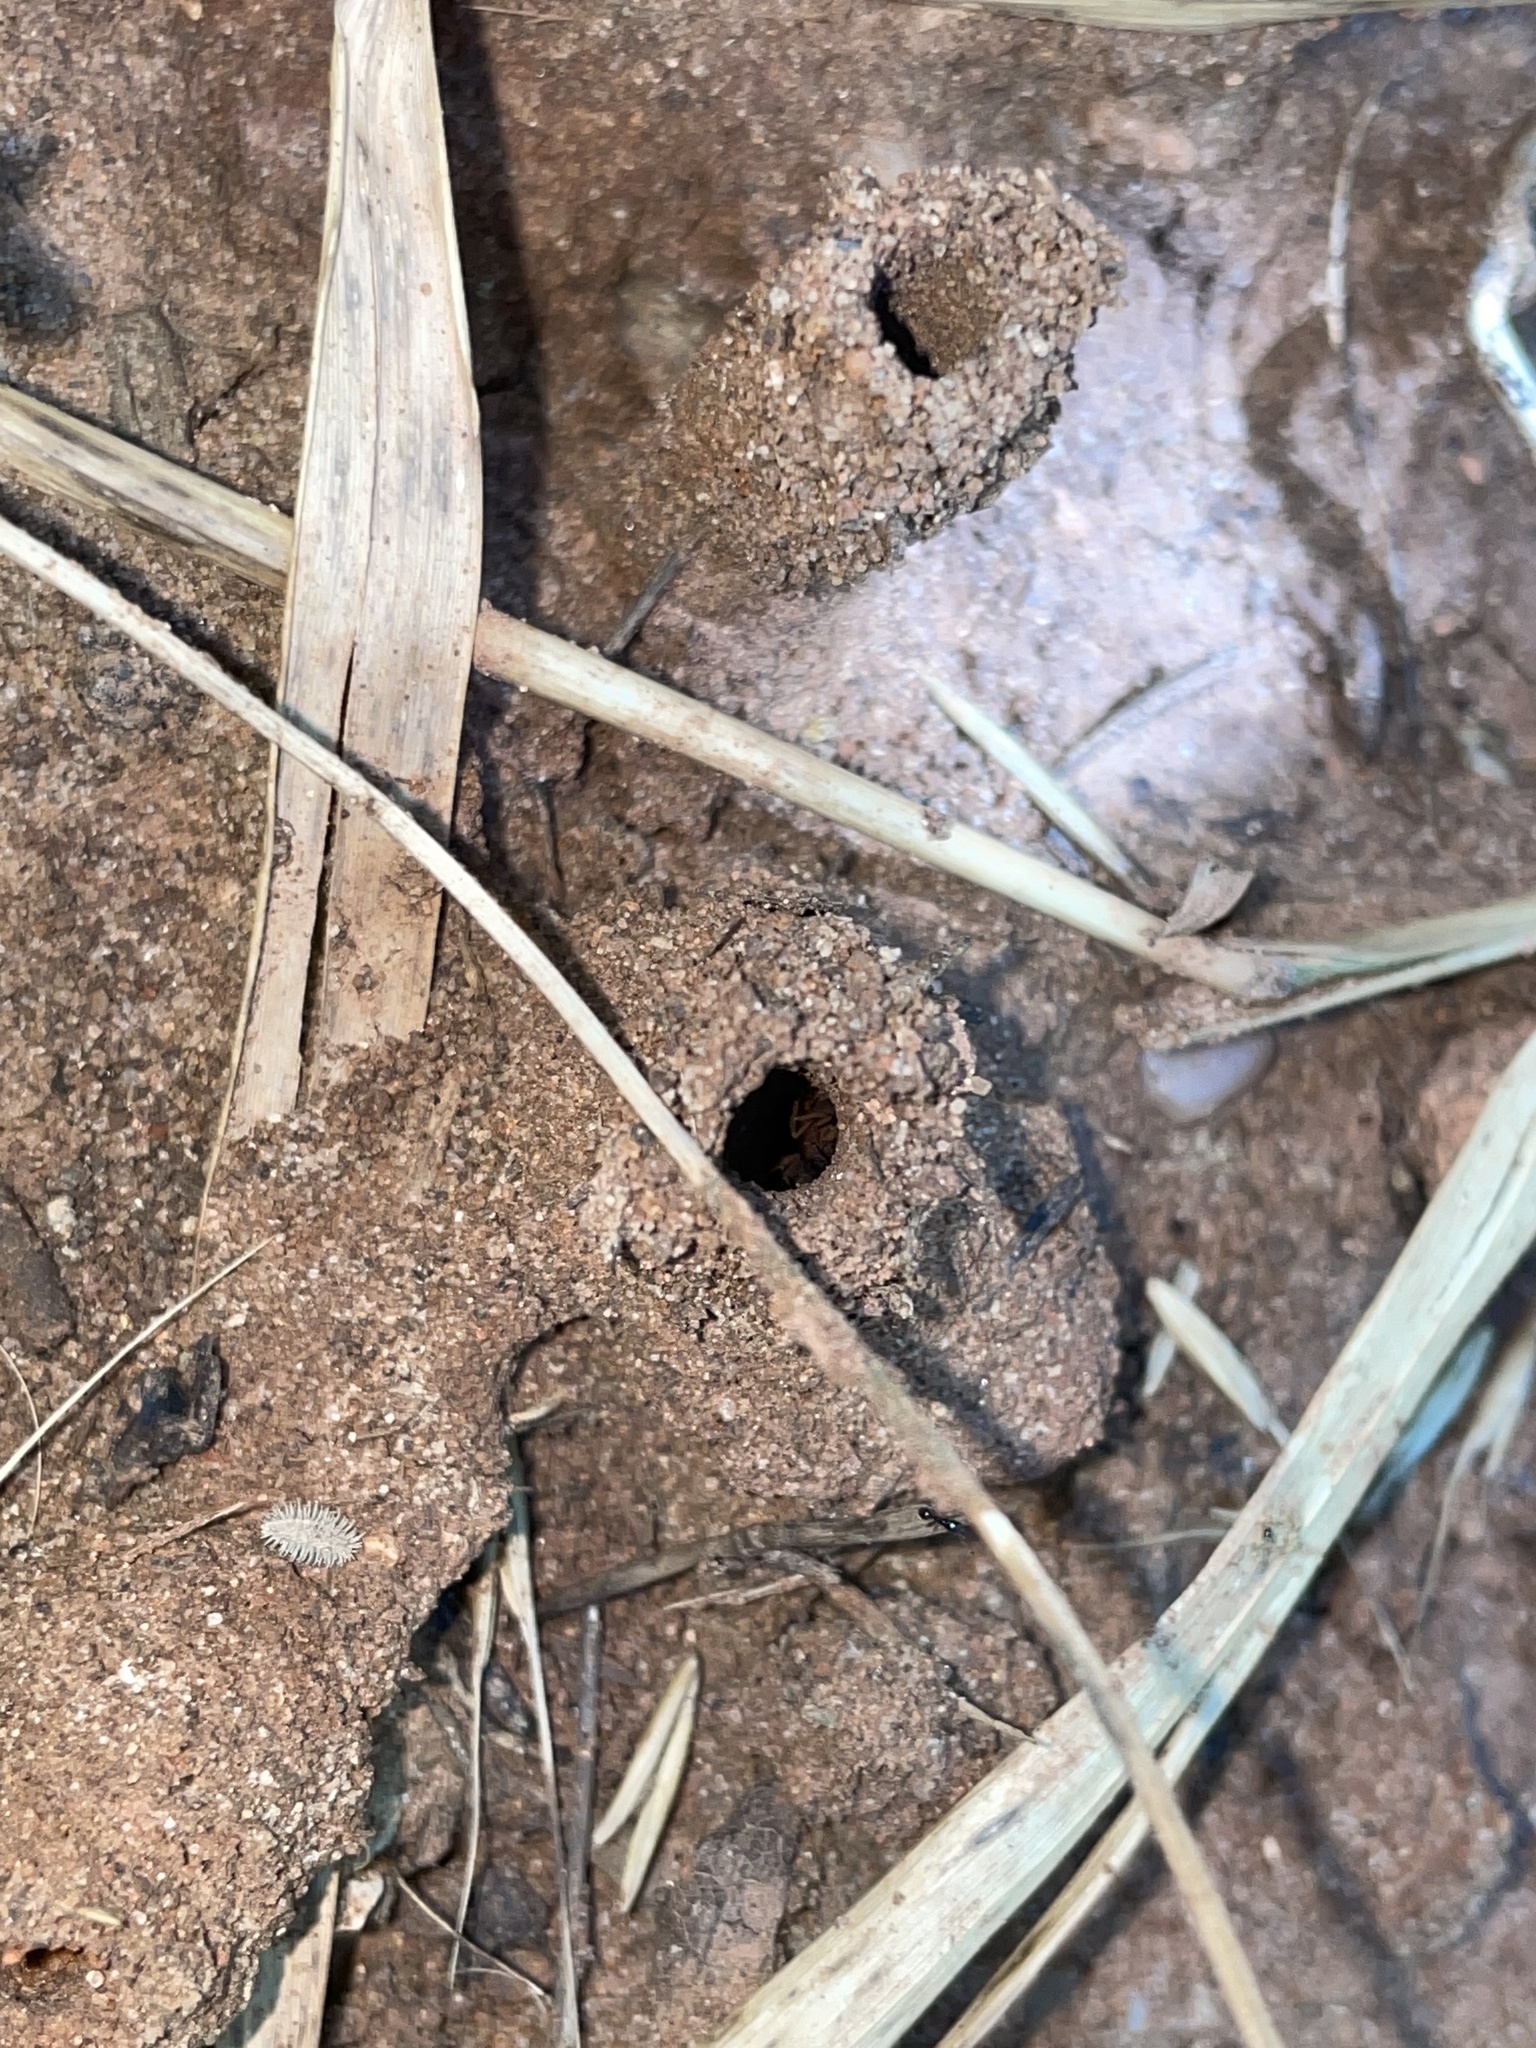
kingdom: Animalia
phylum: Arthropoda
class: Insecta
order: Hymenoptera
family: Formicidae
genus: Mycetomoellerius
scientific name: Mycetomoellerius
